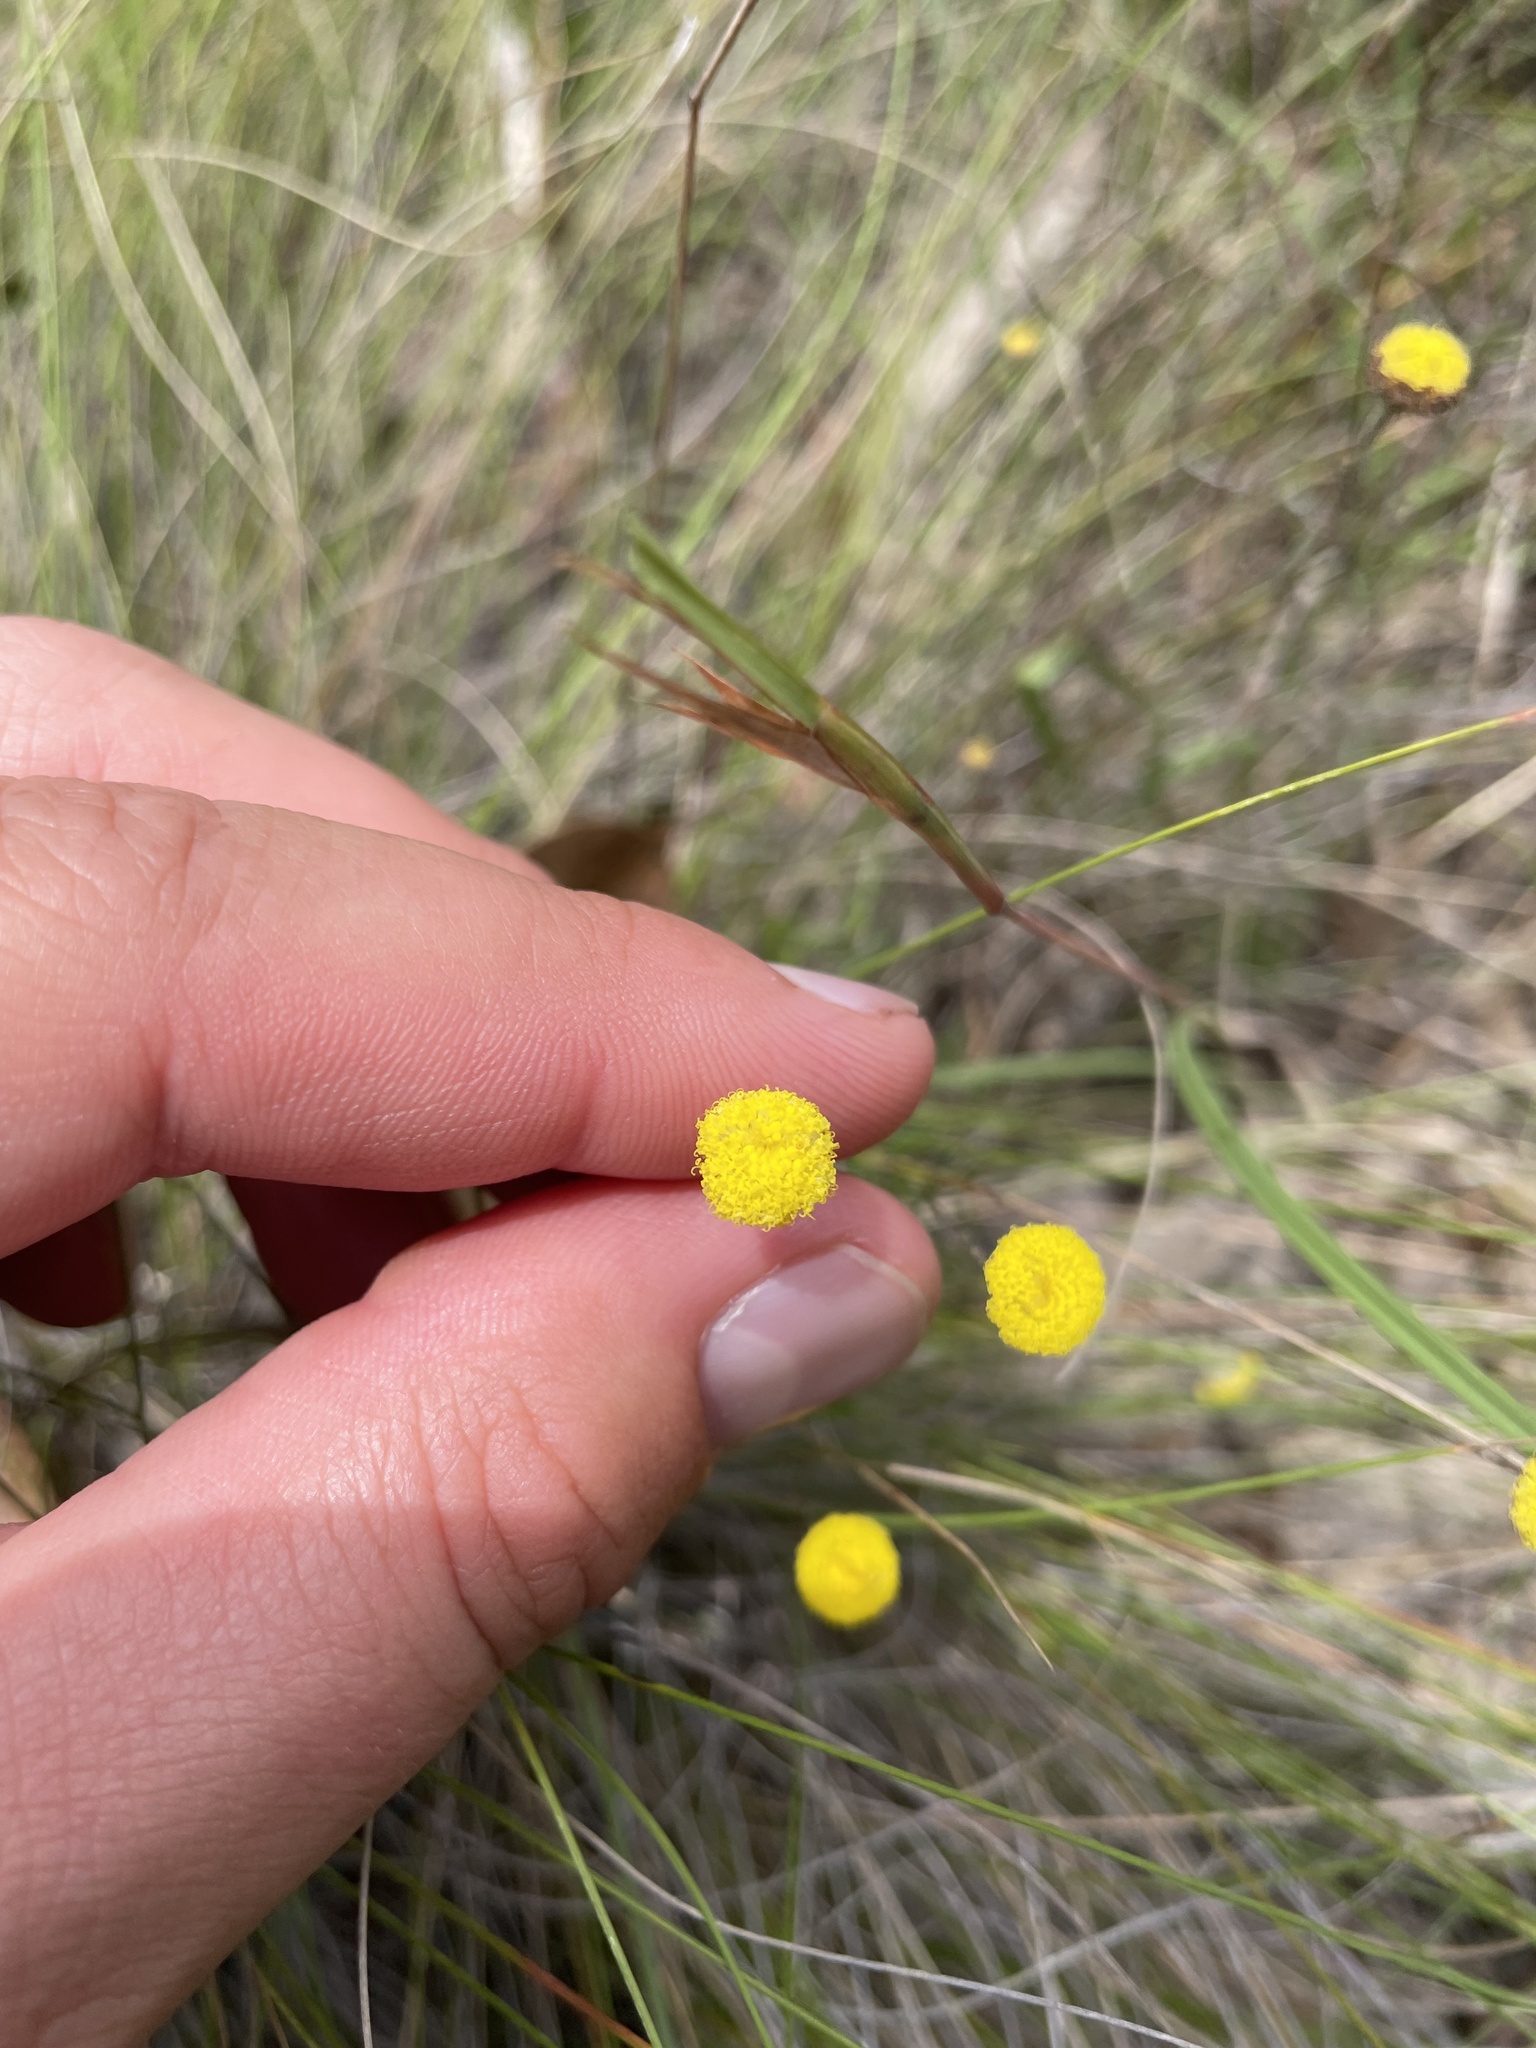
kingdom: Plantae
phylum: Tracheophyta
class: Magnoliopsida
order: Asterales
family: Asteraceae
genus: Leptorhynchos
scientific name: Leptorhynchos tenuifolius
